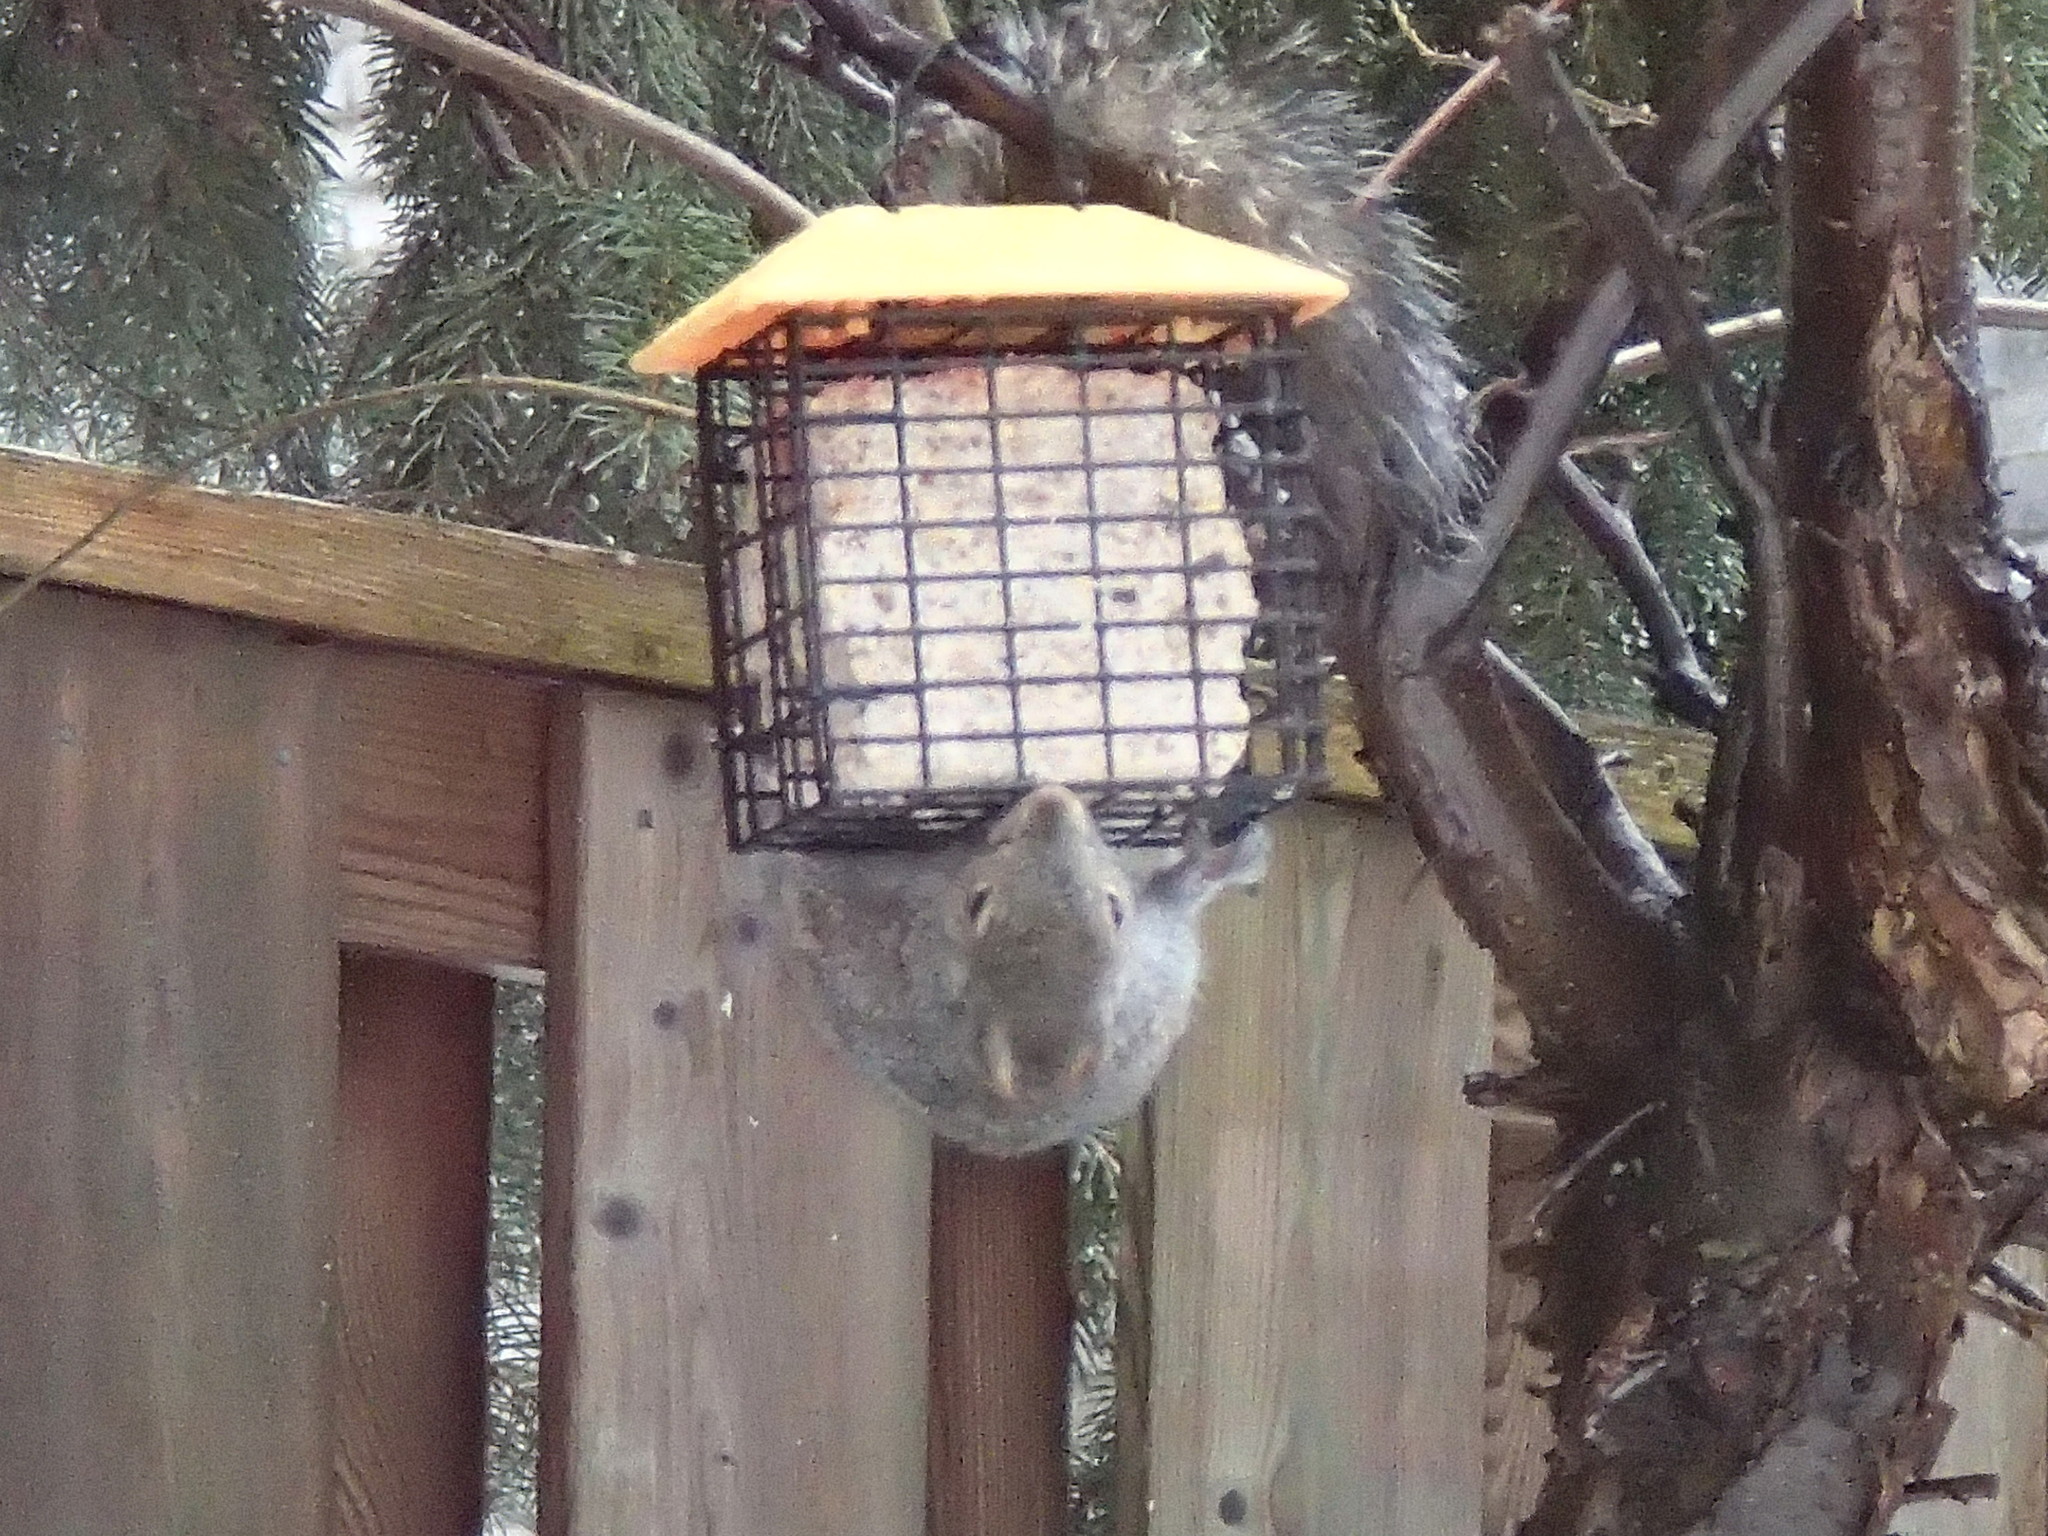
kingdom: Animalia
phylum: Chordata
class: Mammalia
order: Rodentia
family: Sciuridae
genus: Sciurus
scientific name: Sciurus carolinensis
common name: Eastern gray squirrel
